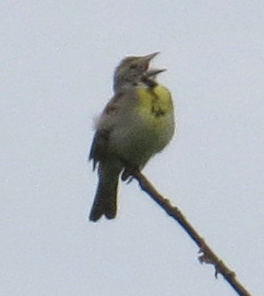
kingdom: Animalia
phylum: Chordata
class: Aves
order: Passeriformes
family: Cardinalidae
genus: Spiza
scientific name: Spiza americana
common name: Dickcissel
